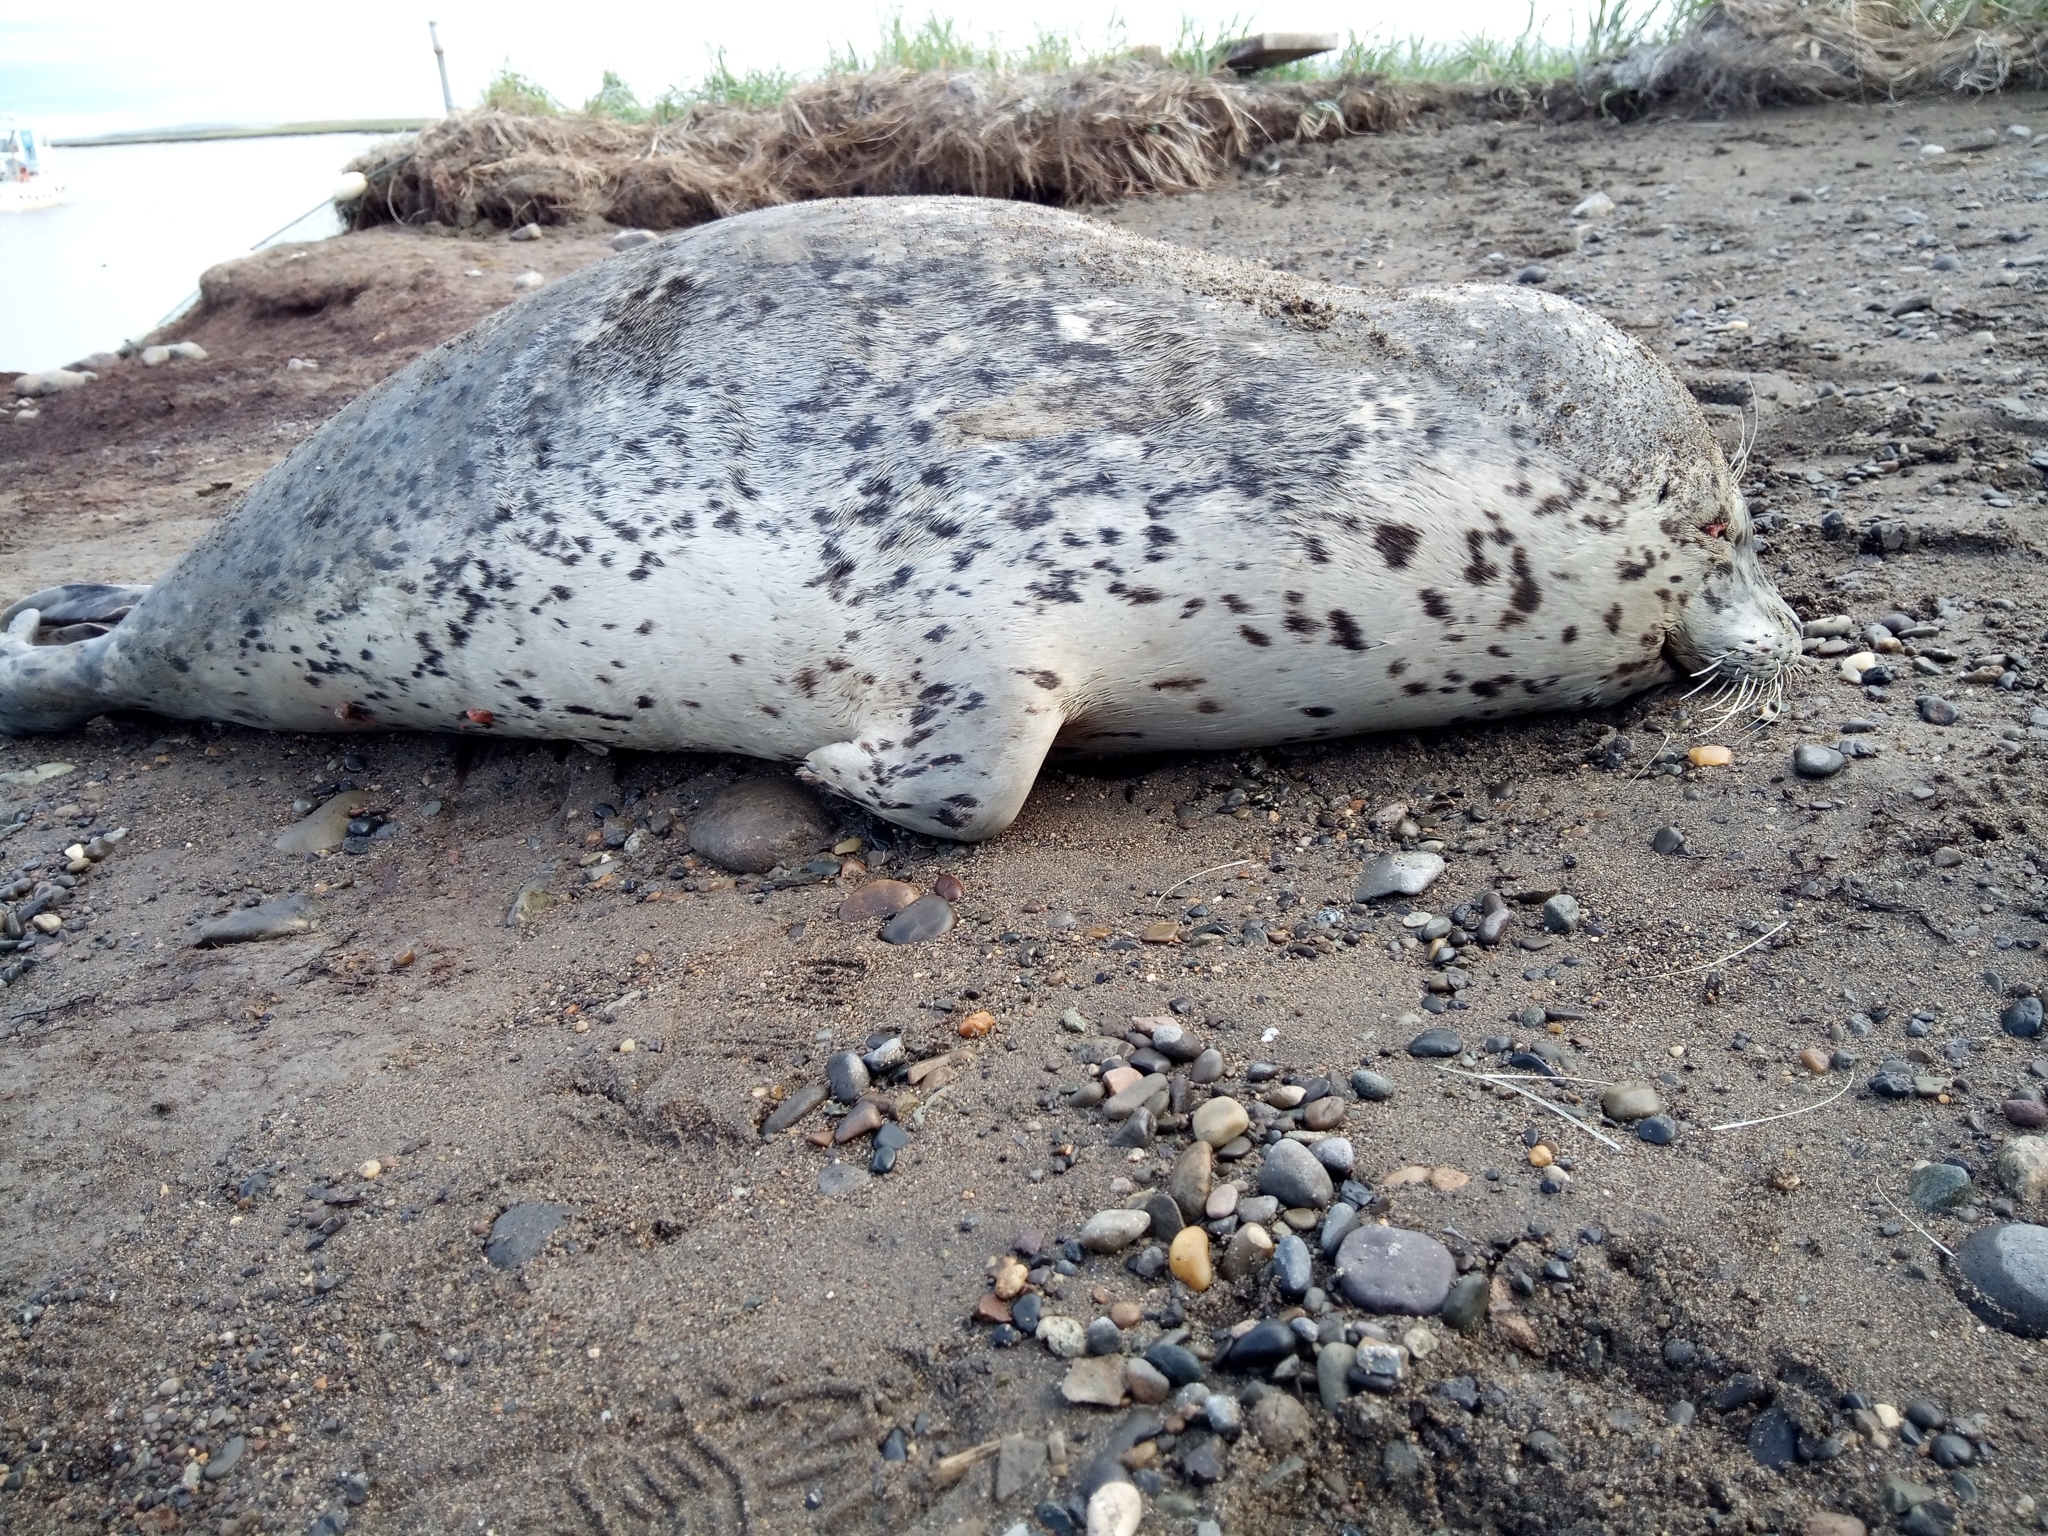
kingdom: Animalia
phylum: Chordata
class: Mammalia
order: Carnivora
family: Phocidae
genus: Phoca
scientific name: Phoca vitulina
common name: Harbor seal
